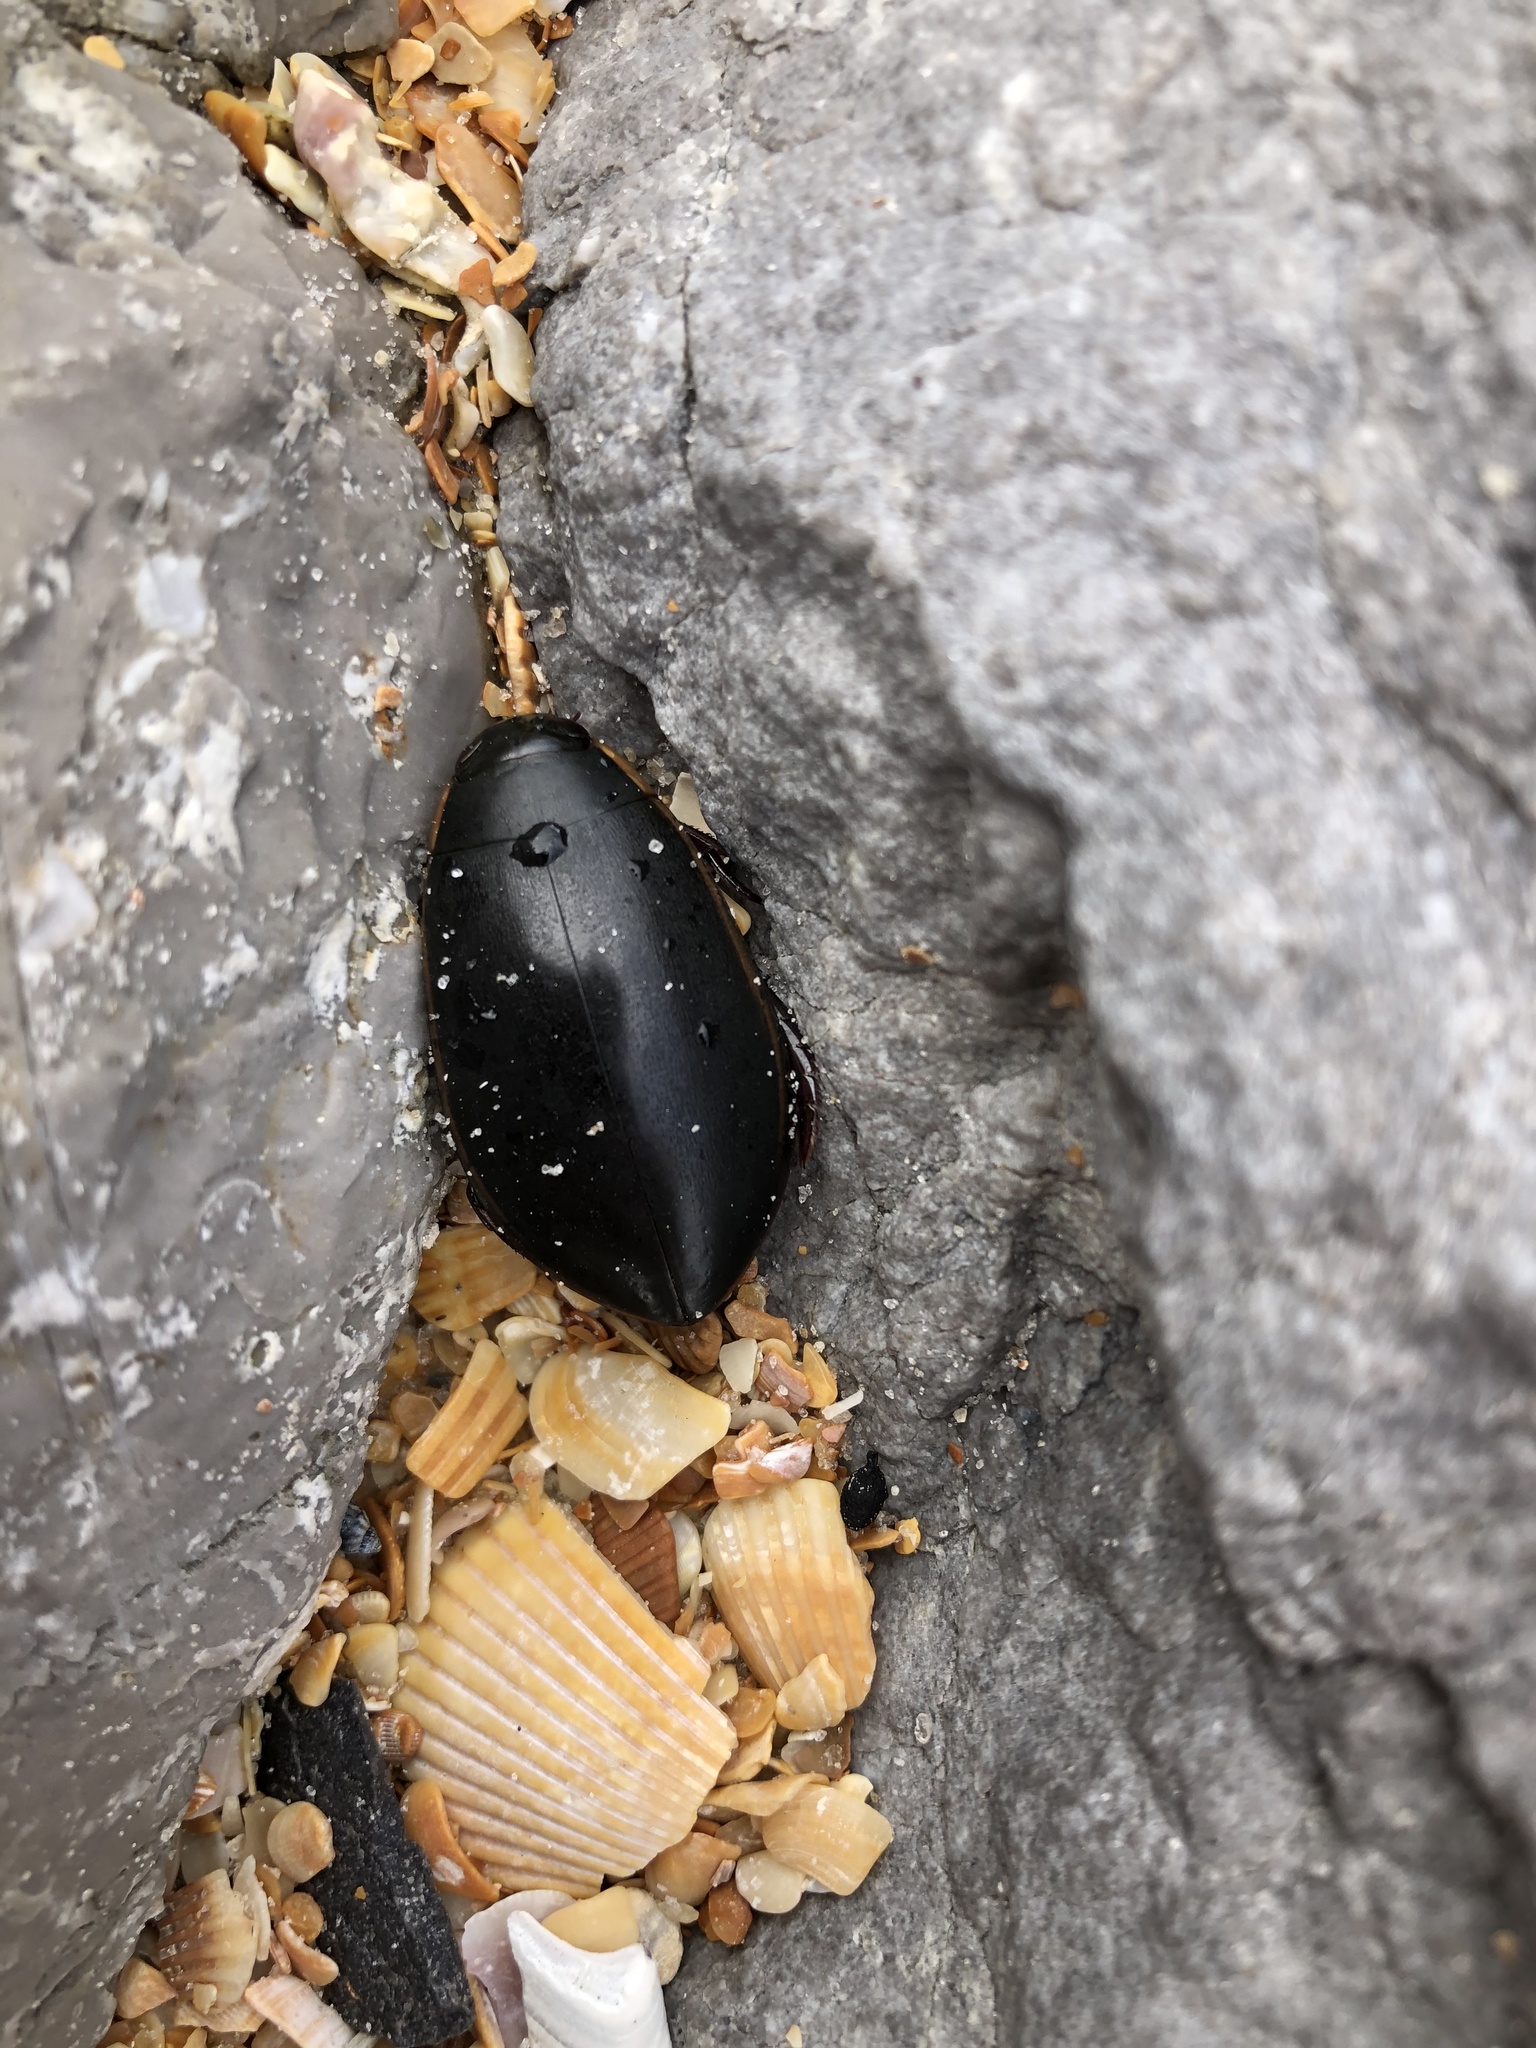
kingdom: Animalia
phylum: Arthropoda
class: Insecta
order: Coleoptera
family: Dytiscidae
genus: Cybister
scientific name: Cybister fimbriolatus
